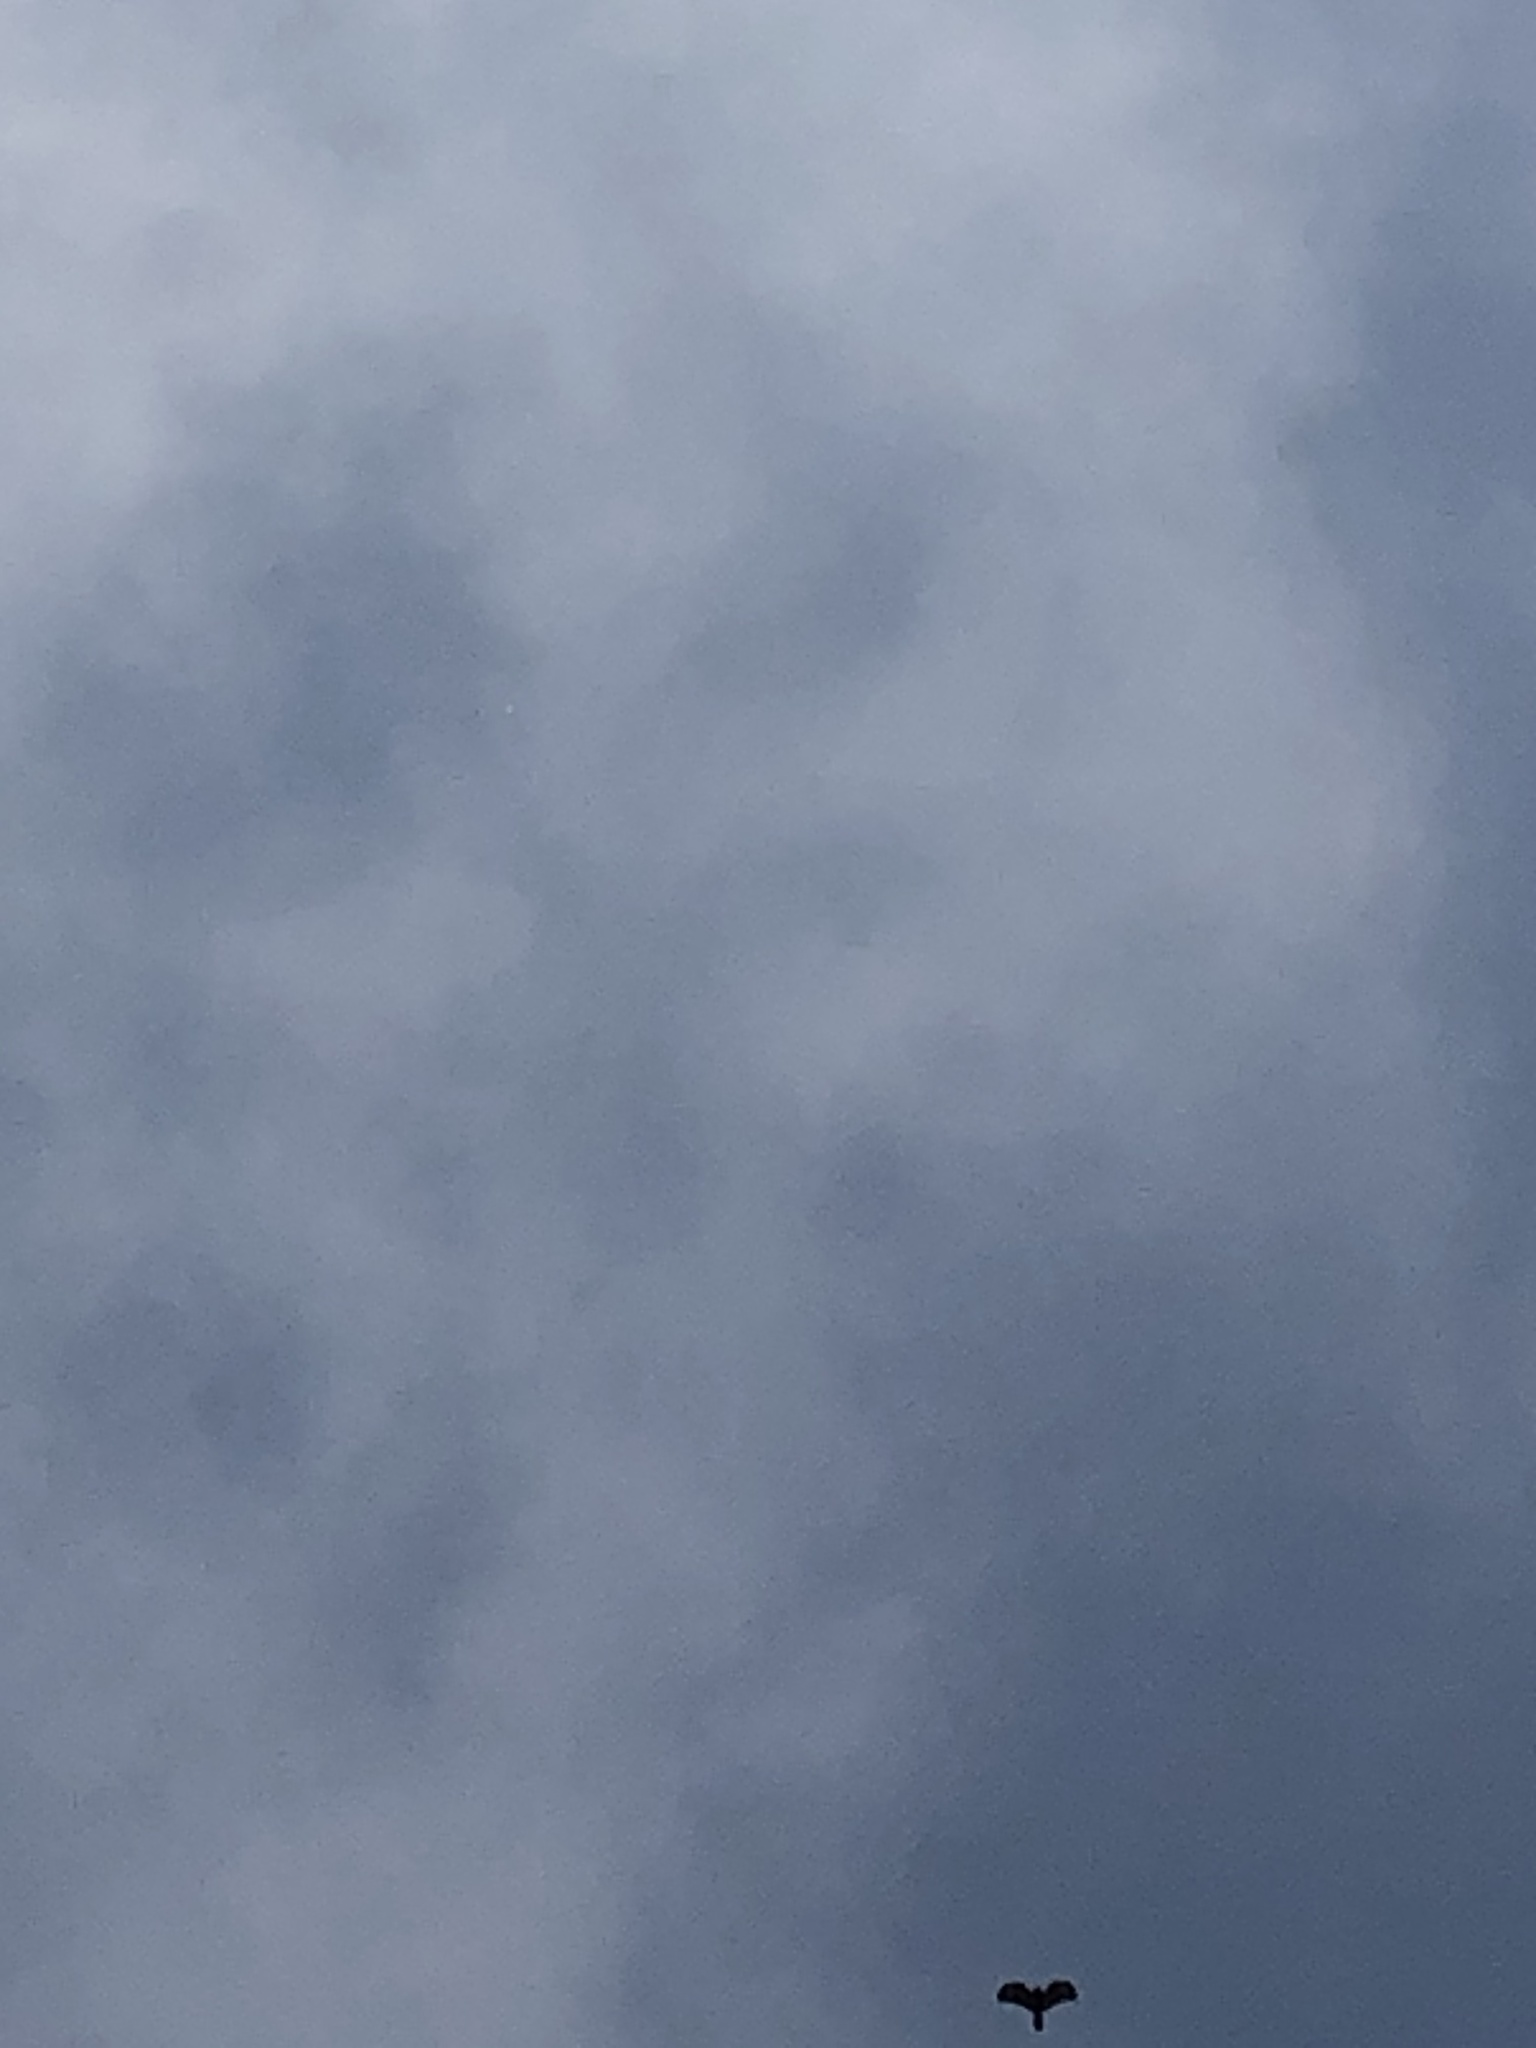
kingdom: Animalia
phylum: Chordata
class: Aves
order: Accipitriformes
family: Accipitridae
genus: Parabuteo
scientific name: Parabuteo unicinctus
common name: Harris's hawk
